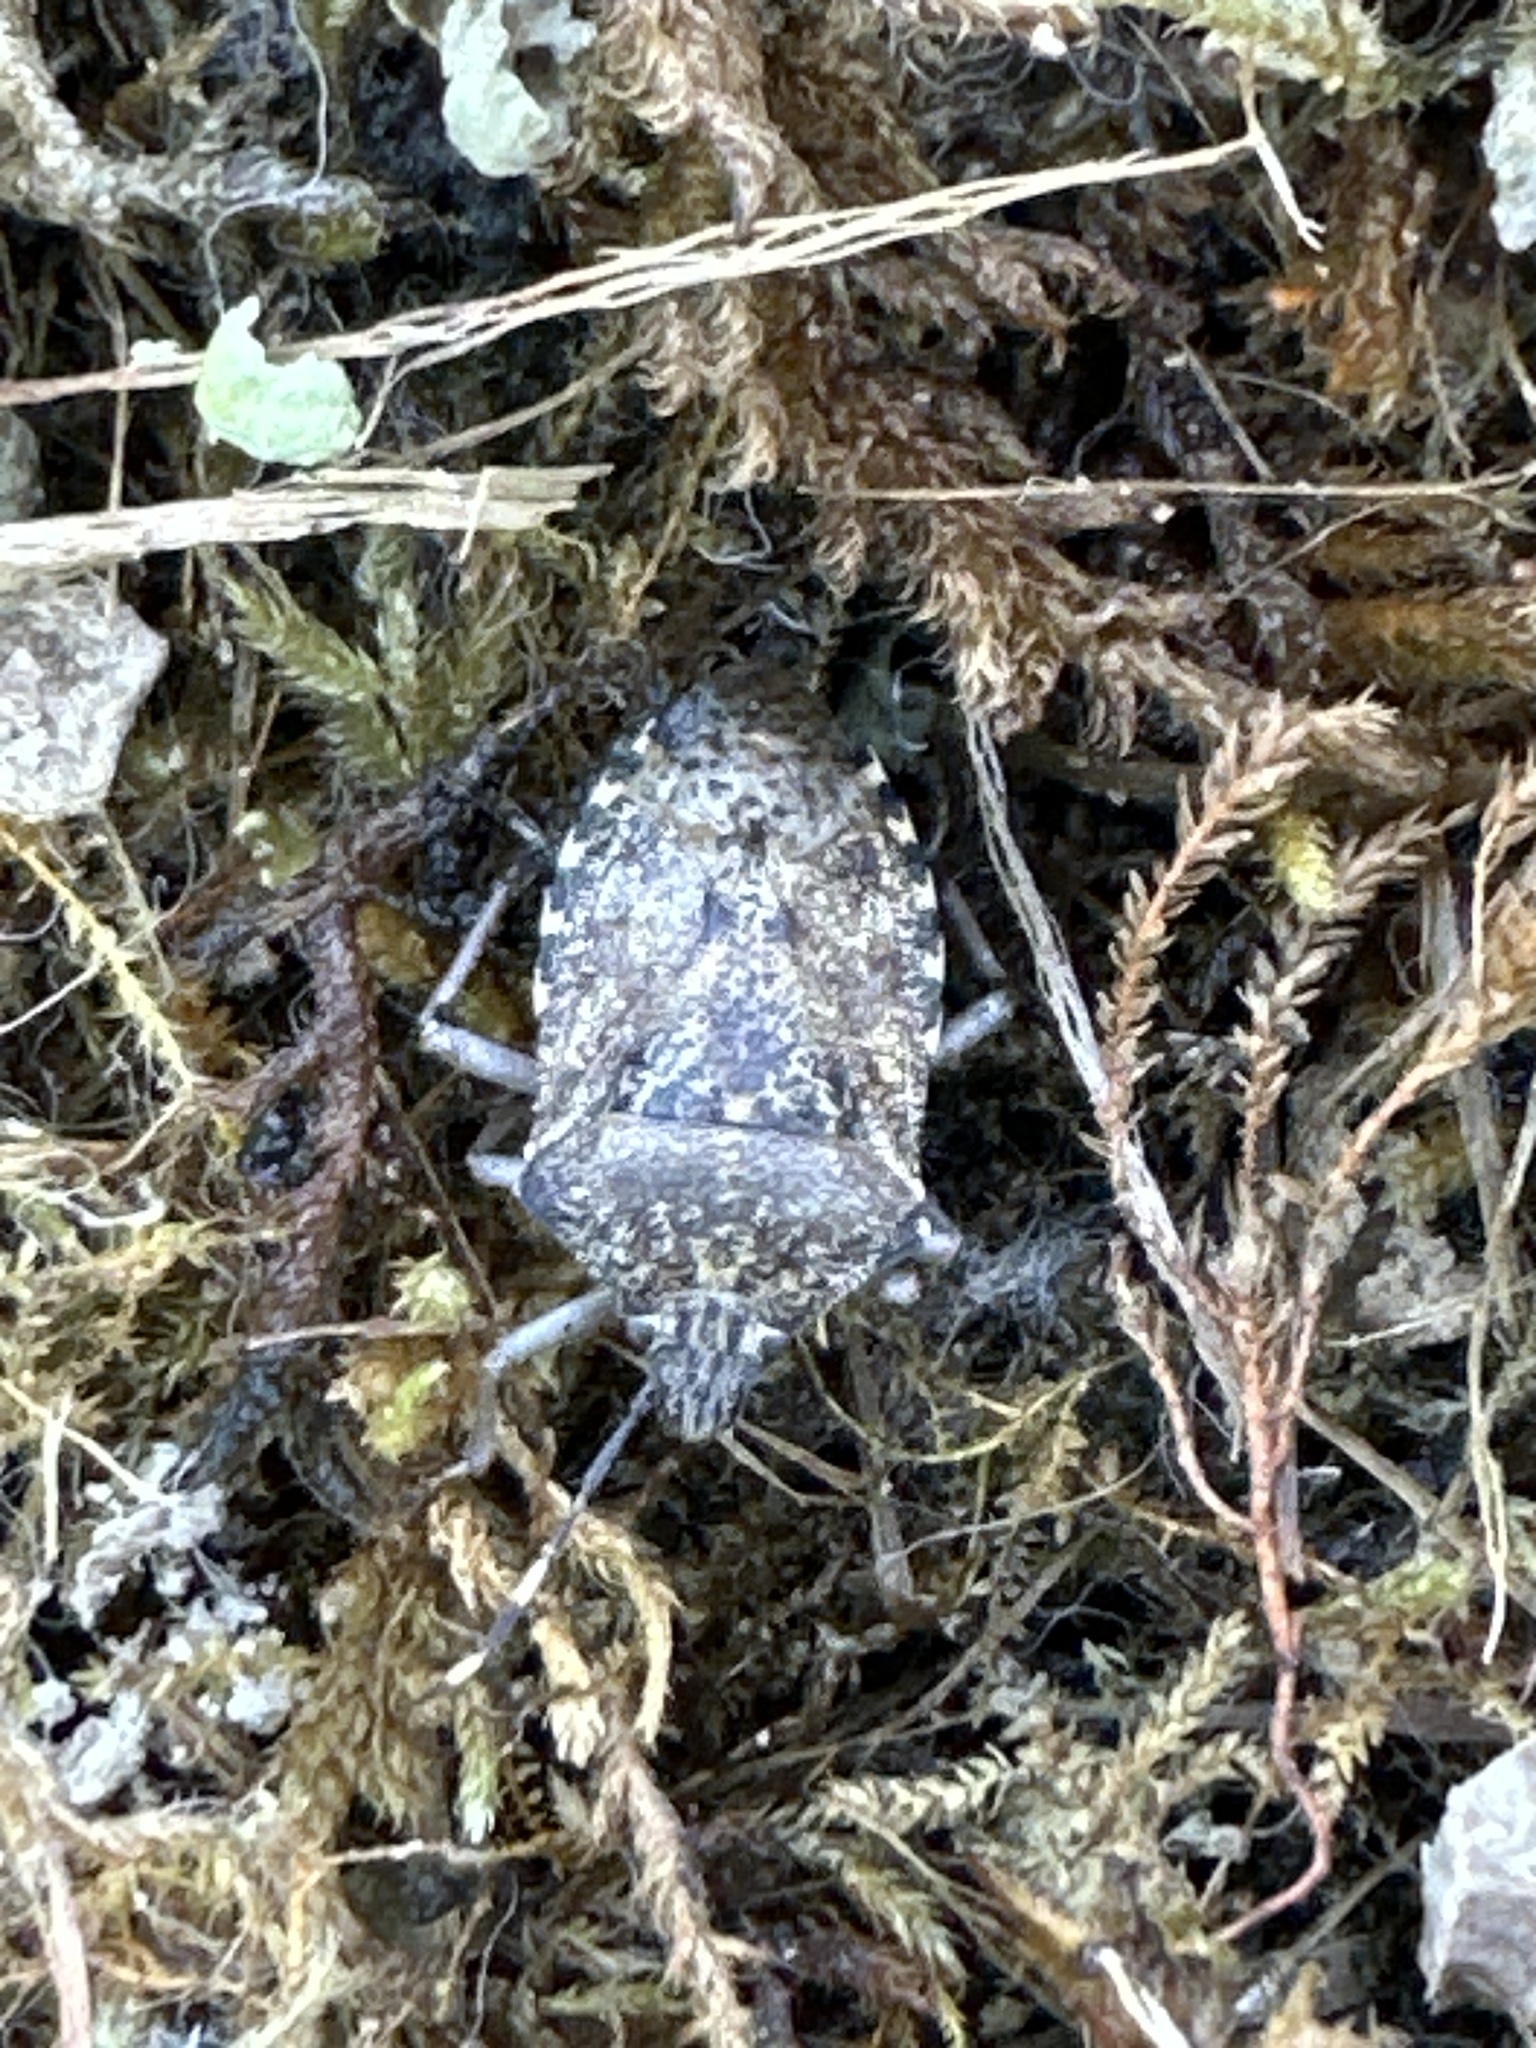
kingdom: Animalia
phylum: Arthropoda
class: Insecta
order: Hemiptera
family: Pentatomidae
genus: Rhaphigaster
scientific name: Rhaphigaster nebulosa
